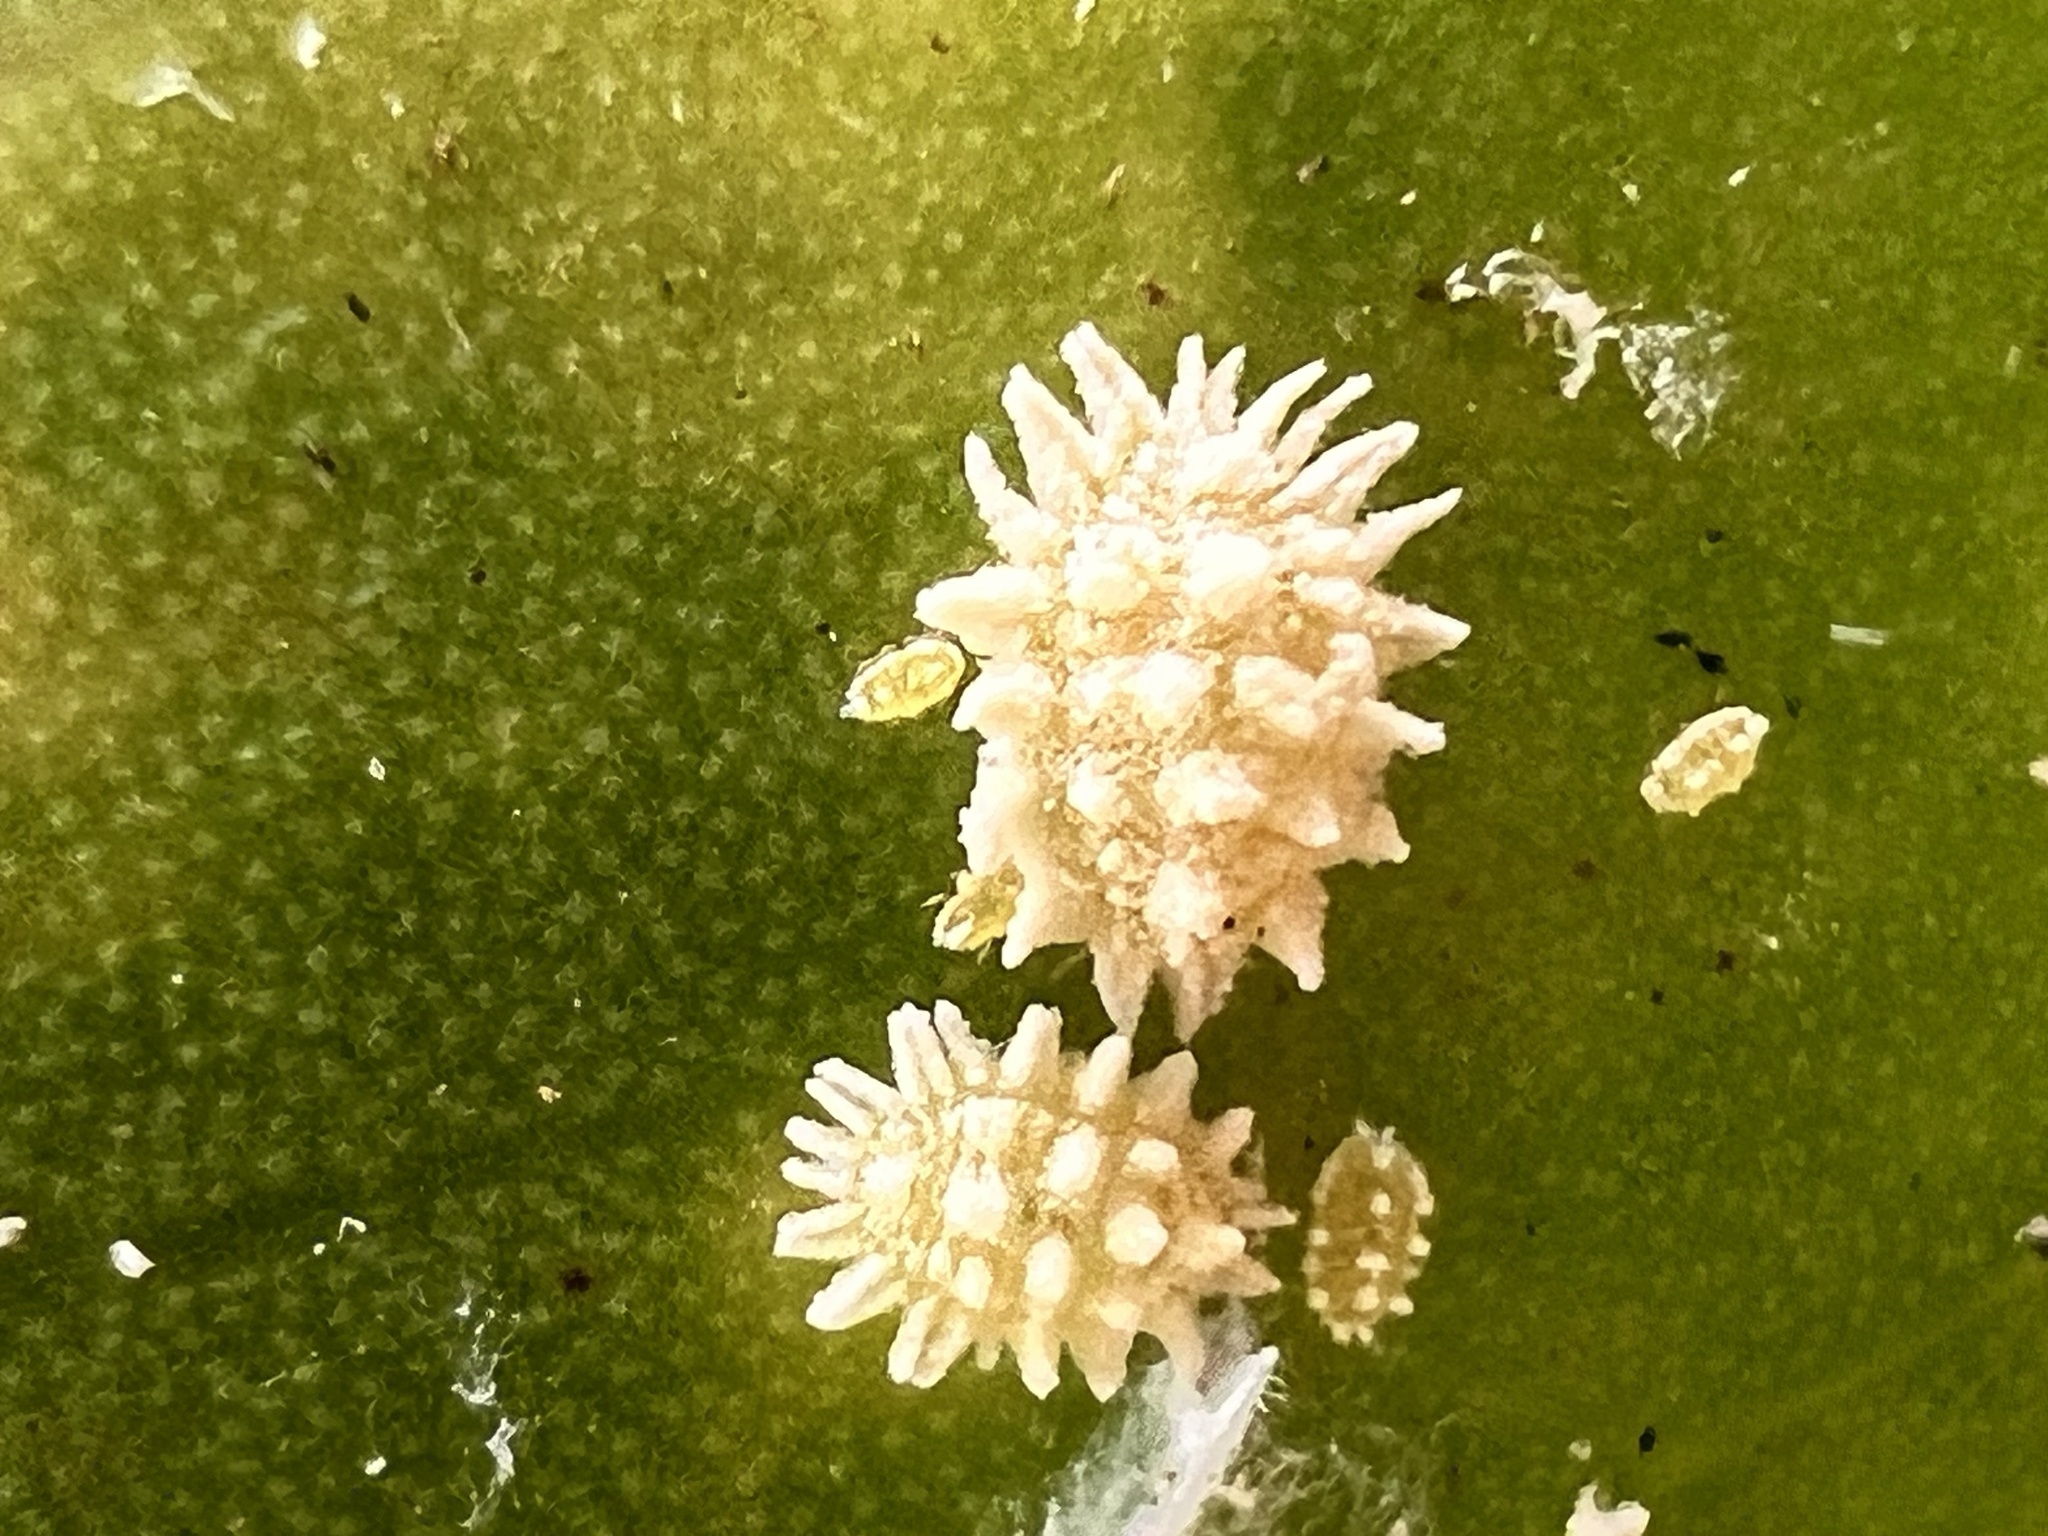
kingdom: Animalia
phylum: Arthropoda
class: Insecta
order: Hemiptera
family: Pseudococcidae
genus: Nipaecoccus
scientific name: Nipaecoccus nipae
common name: Kentia mealybug
